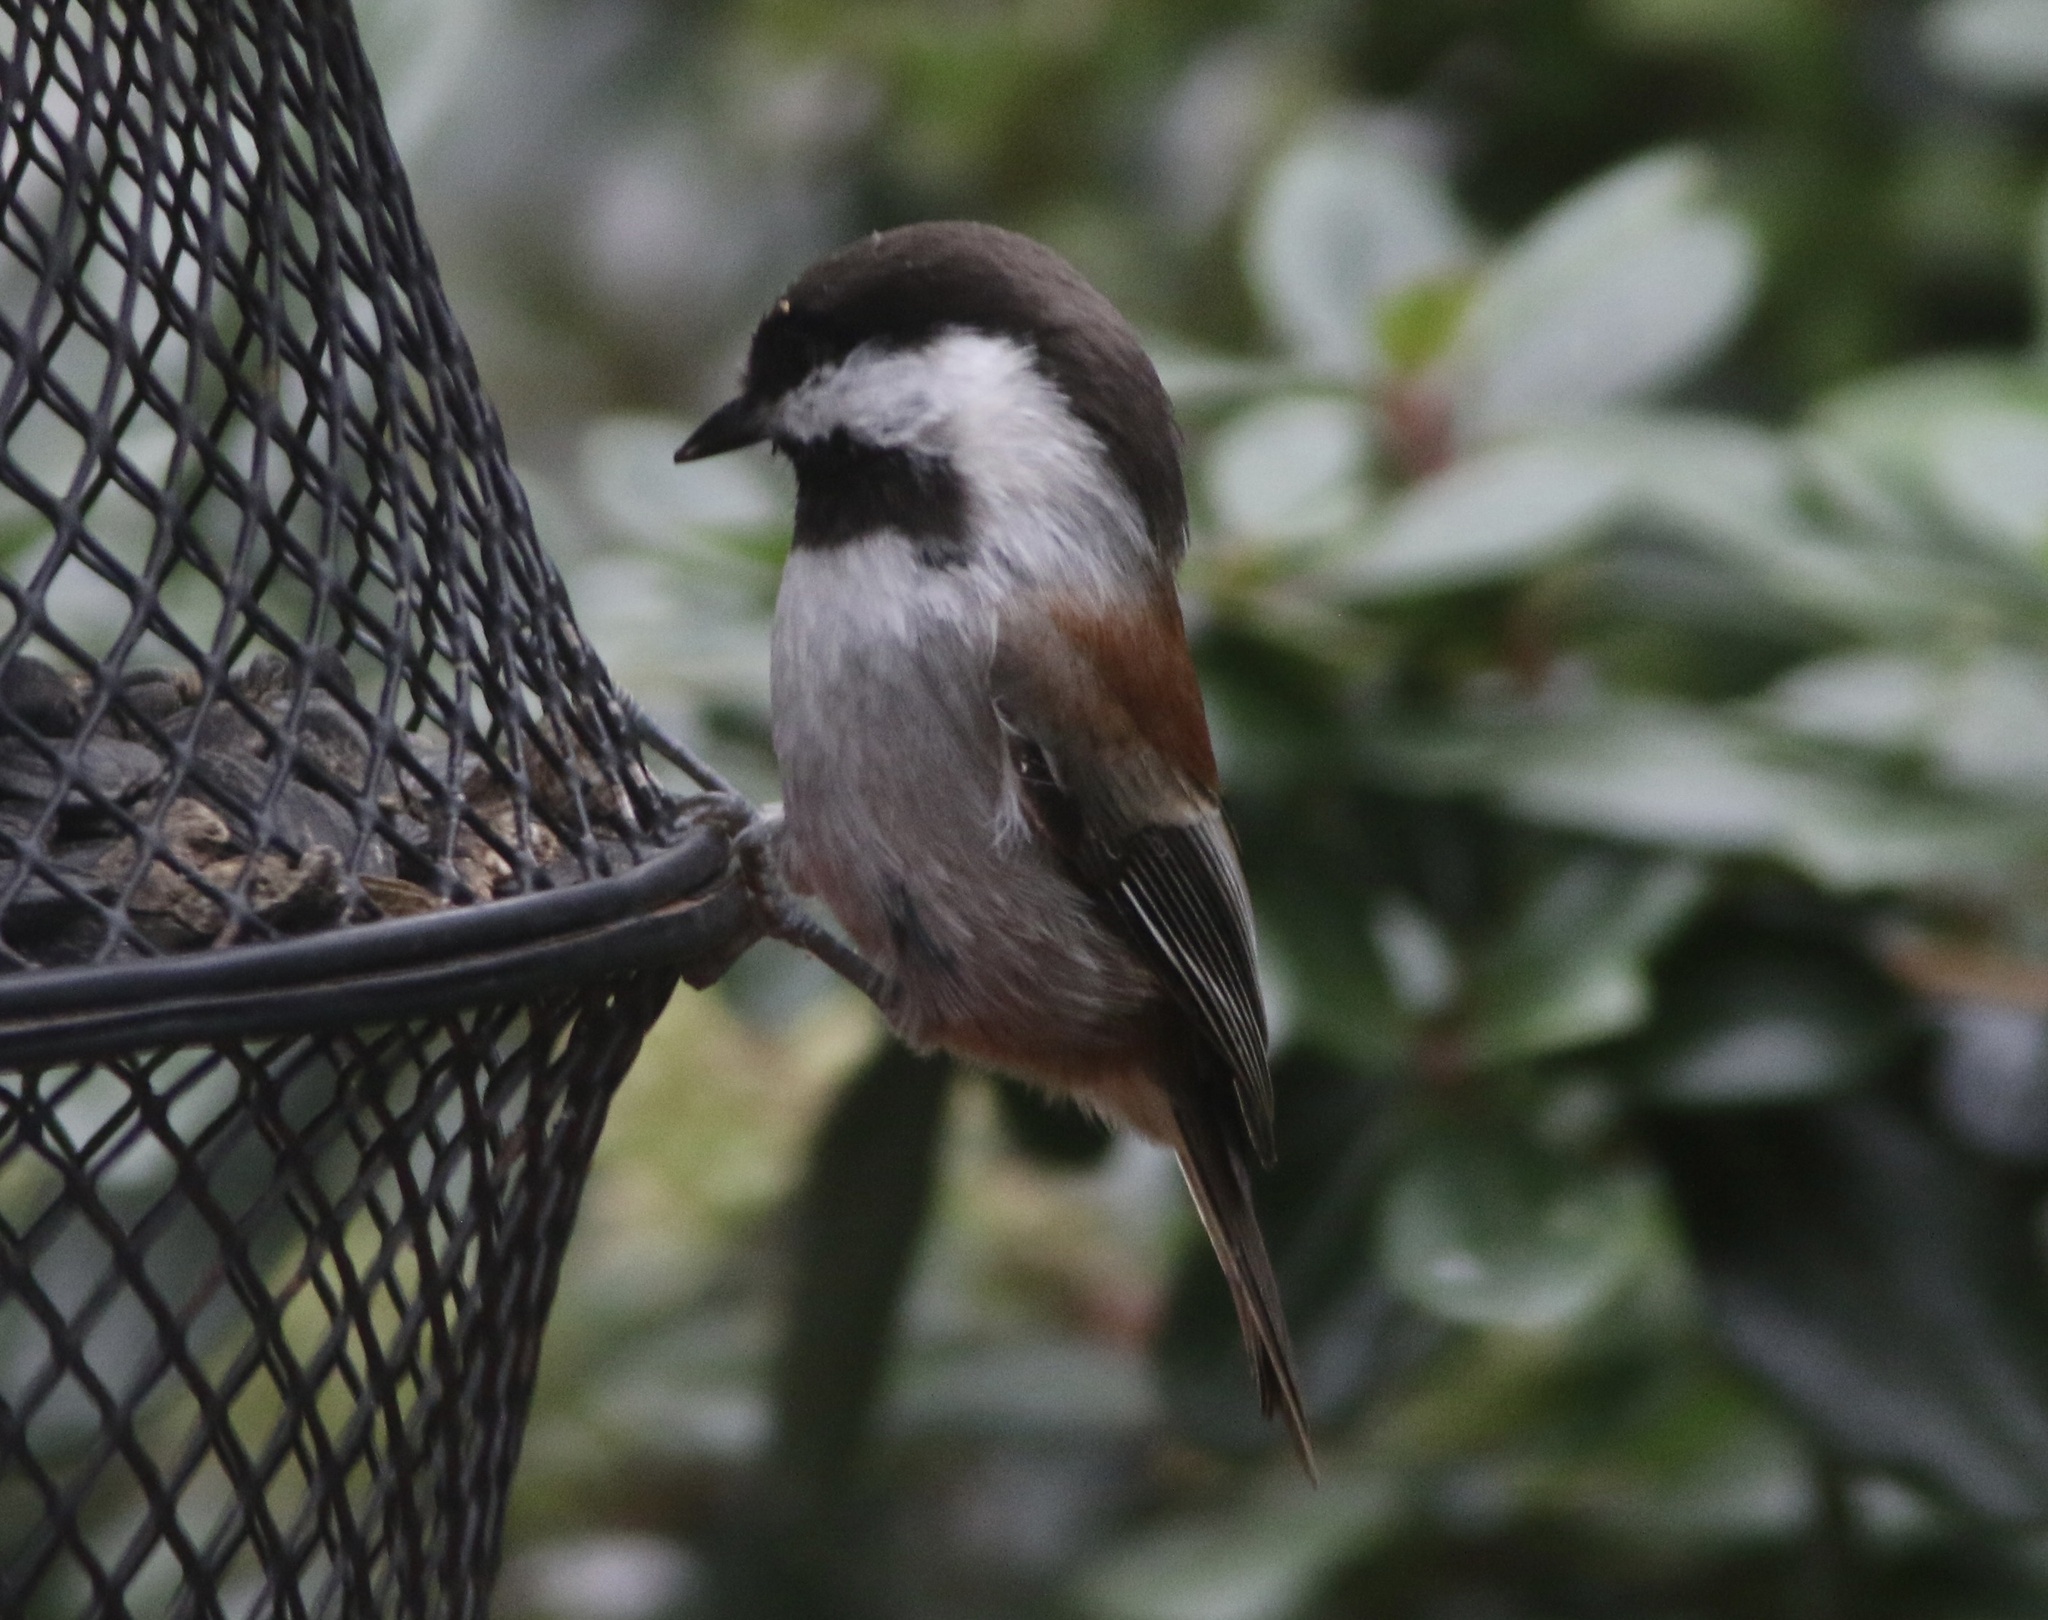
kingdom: Animalia
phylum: Chordata
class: Aves
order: Passeriformes
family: Paridae
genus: Poecile
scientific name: Poecile rufescens
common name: Chestnut-backed chickadee
